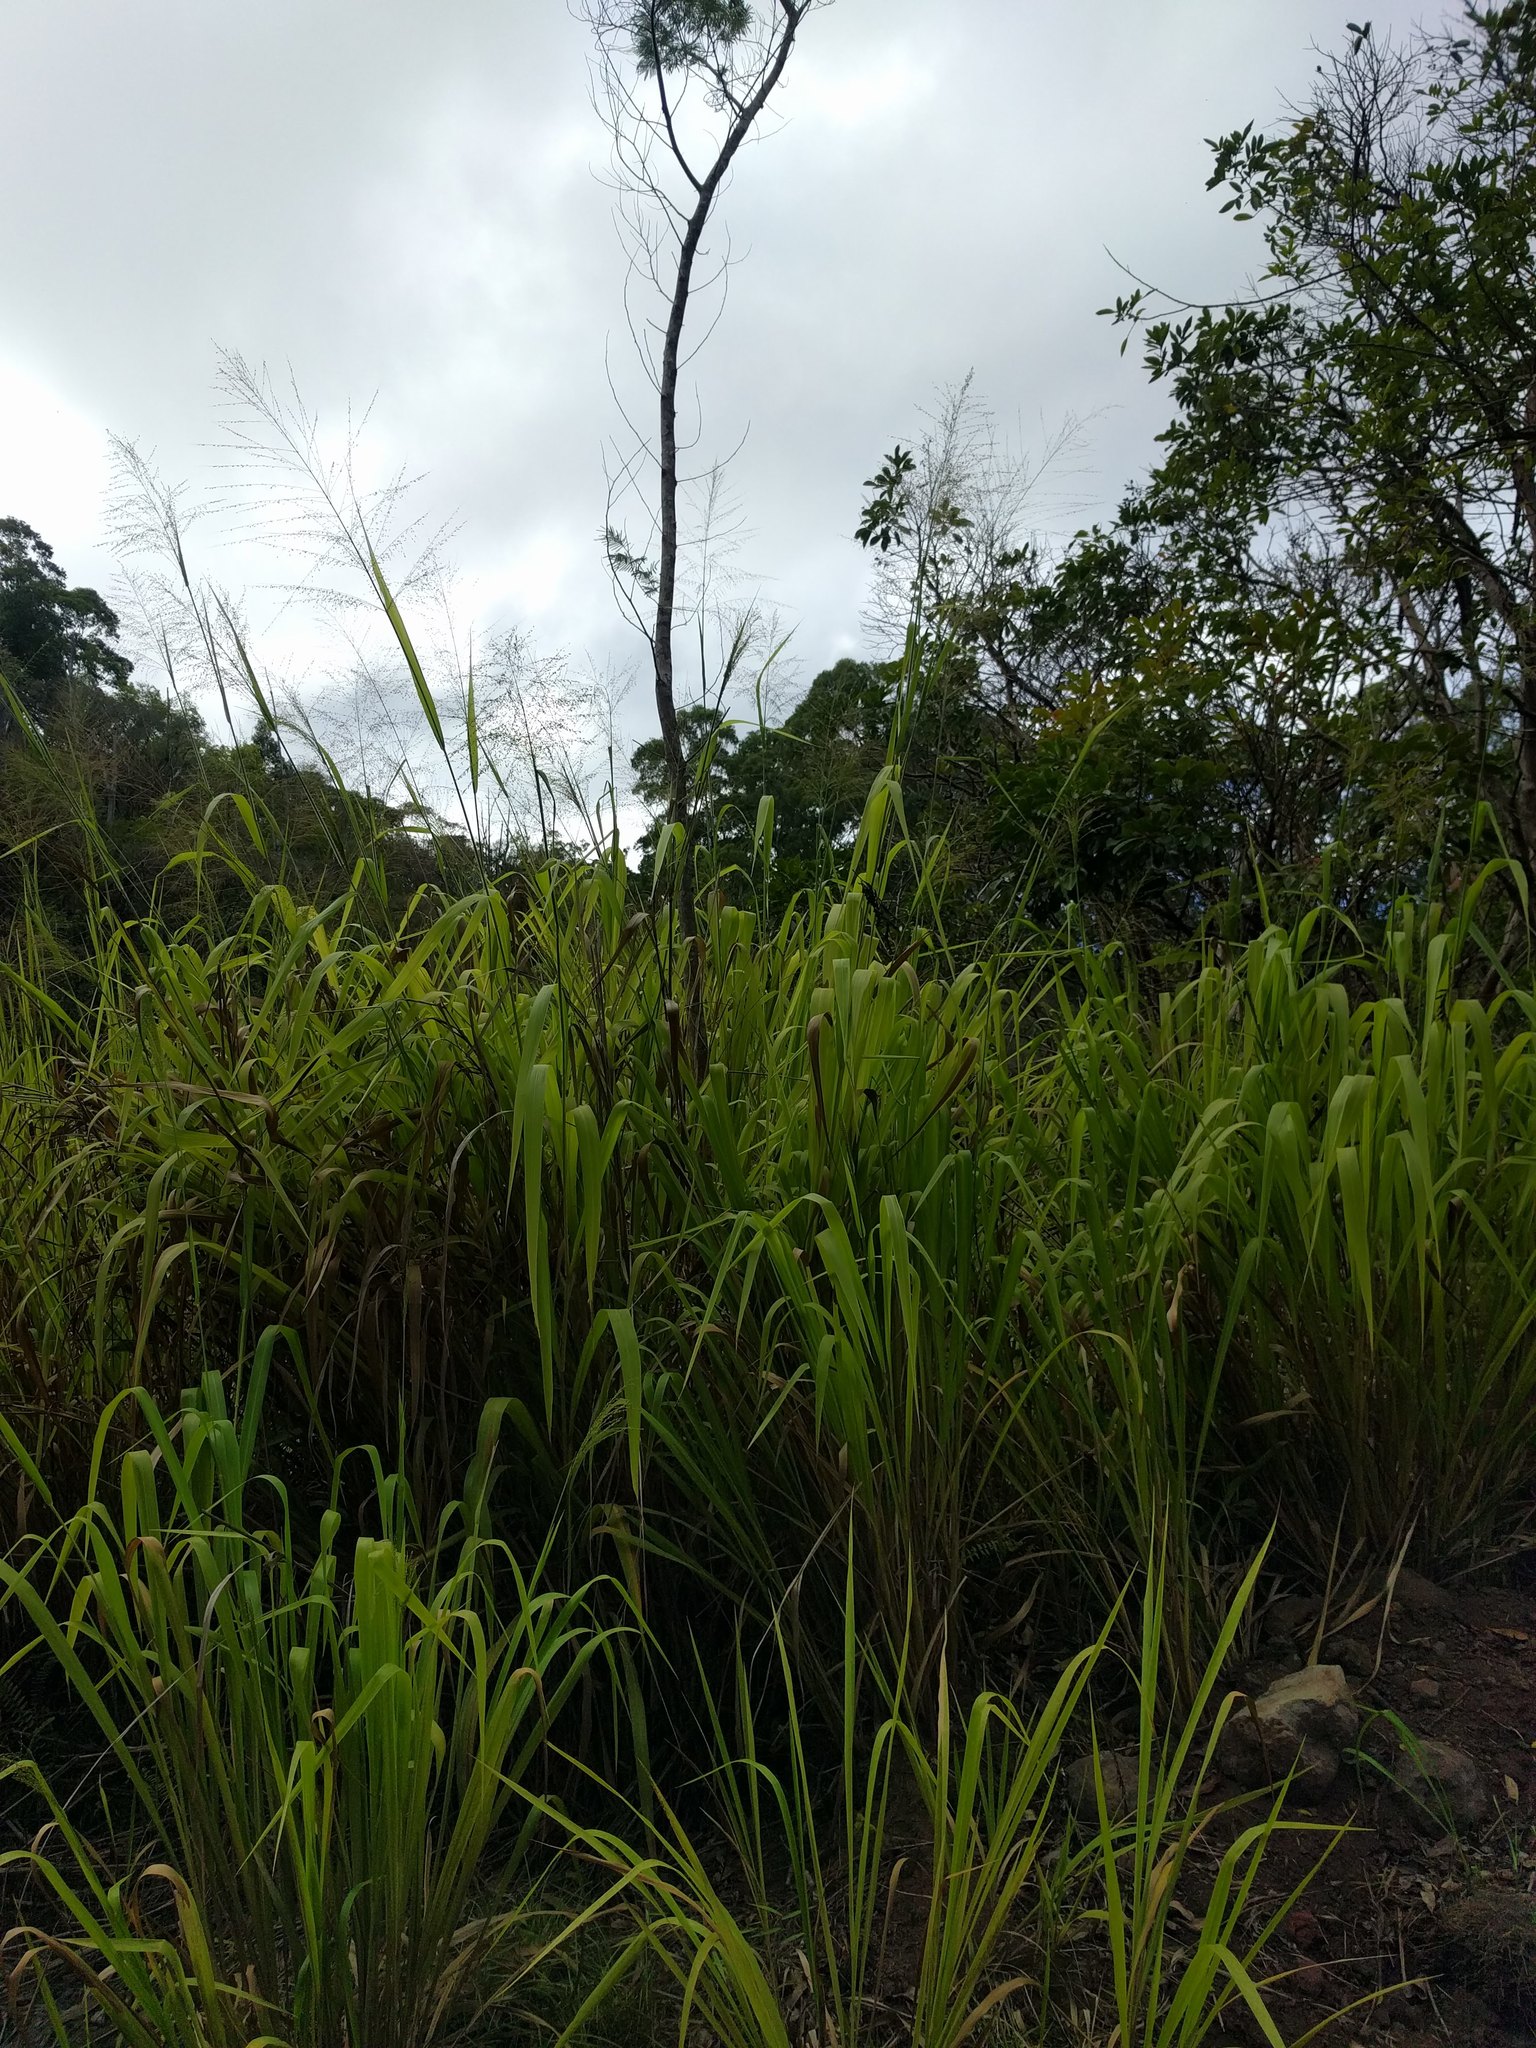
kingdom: Plantae
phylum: Tracheophyta
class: Liliopsida
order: Poales
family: Poaceae
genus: Megathyrsus
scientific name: Megathyrsus maximus
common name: Guineagrass
